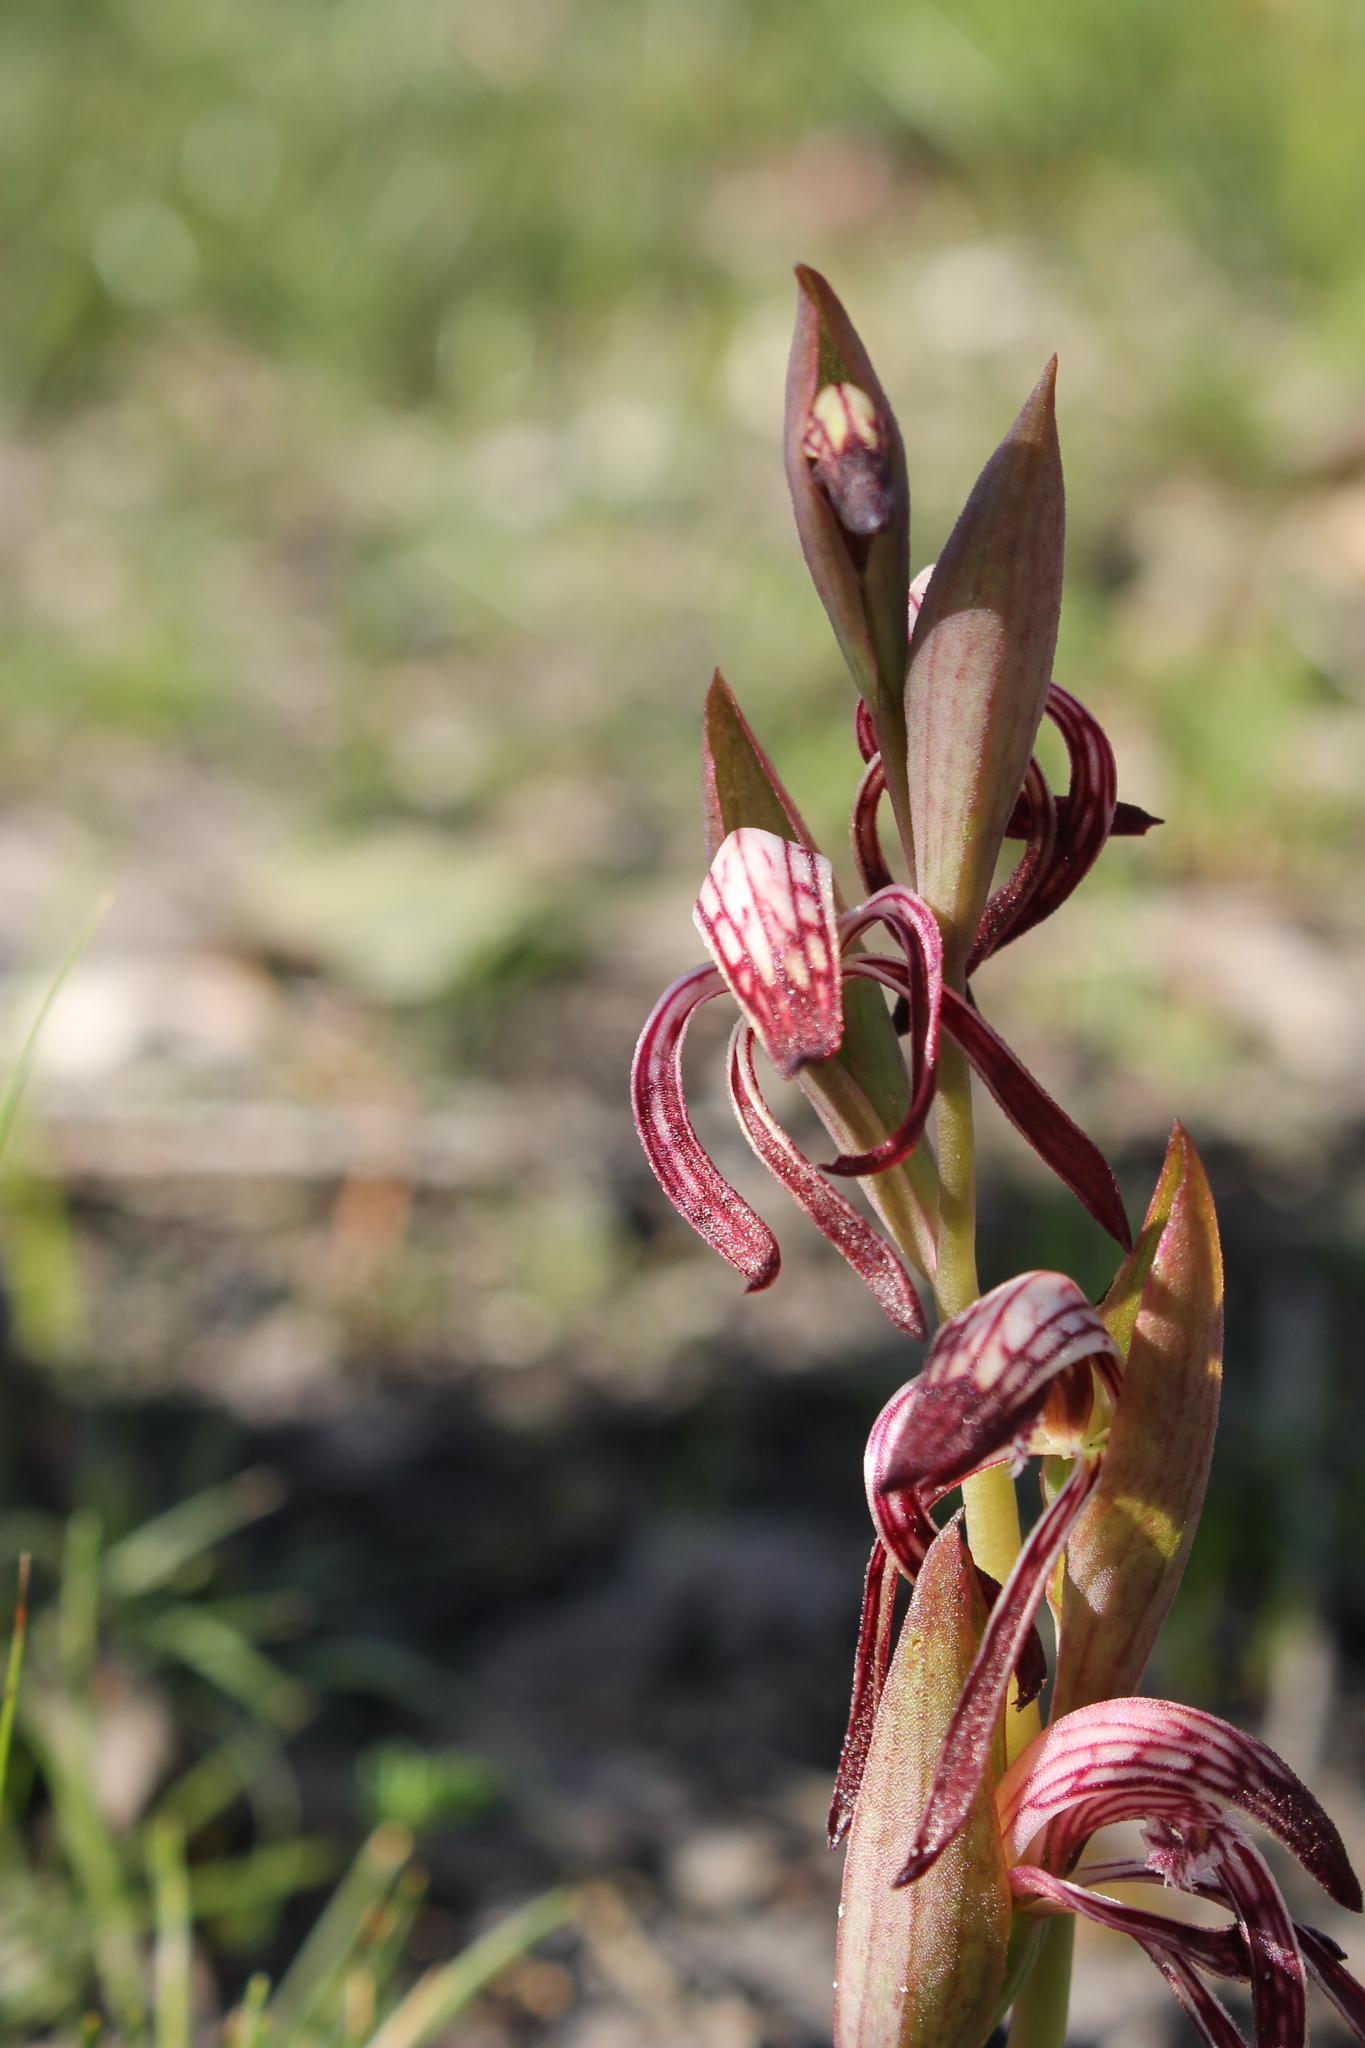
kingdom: Plantae
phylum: Tracheophyta
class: Liliopsida
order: Asparagales
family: Orchidaceae
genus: Pyrorchis
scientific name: Pyrorchis nigricans
